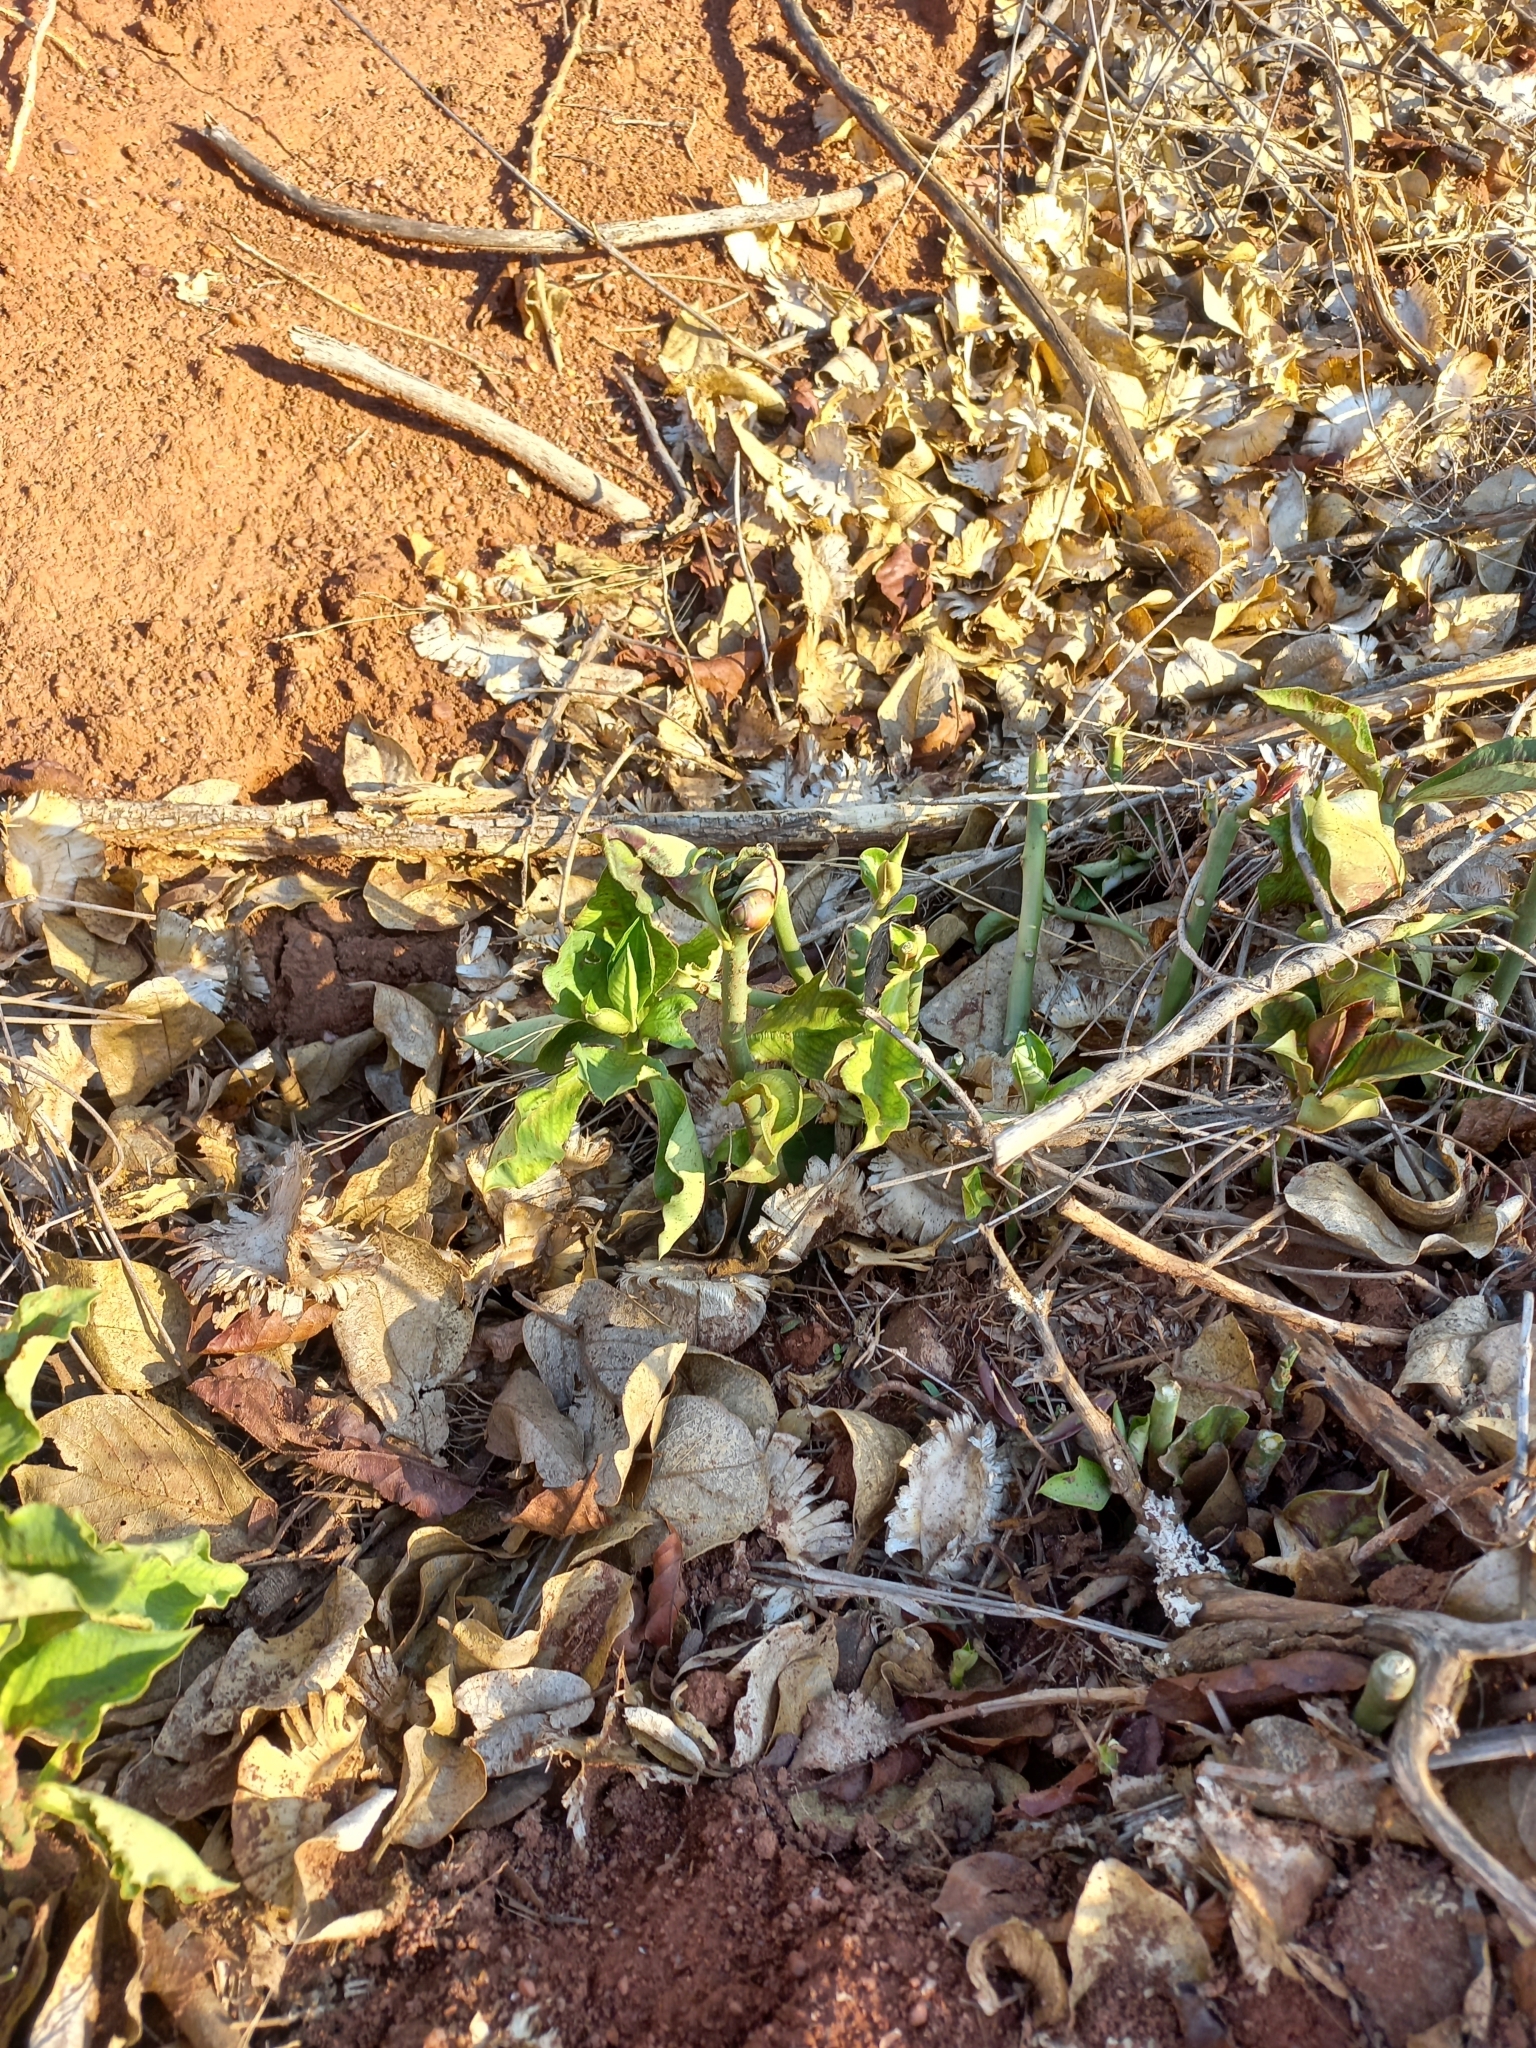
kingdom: Plantae
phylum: Tracheophyta
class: Magnoliopsida
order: Malpighiales
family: Euphorbiaceae
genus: Euphorbia
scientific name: Euphorbia cupularis
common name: Crying tree
